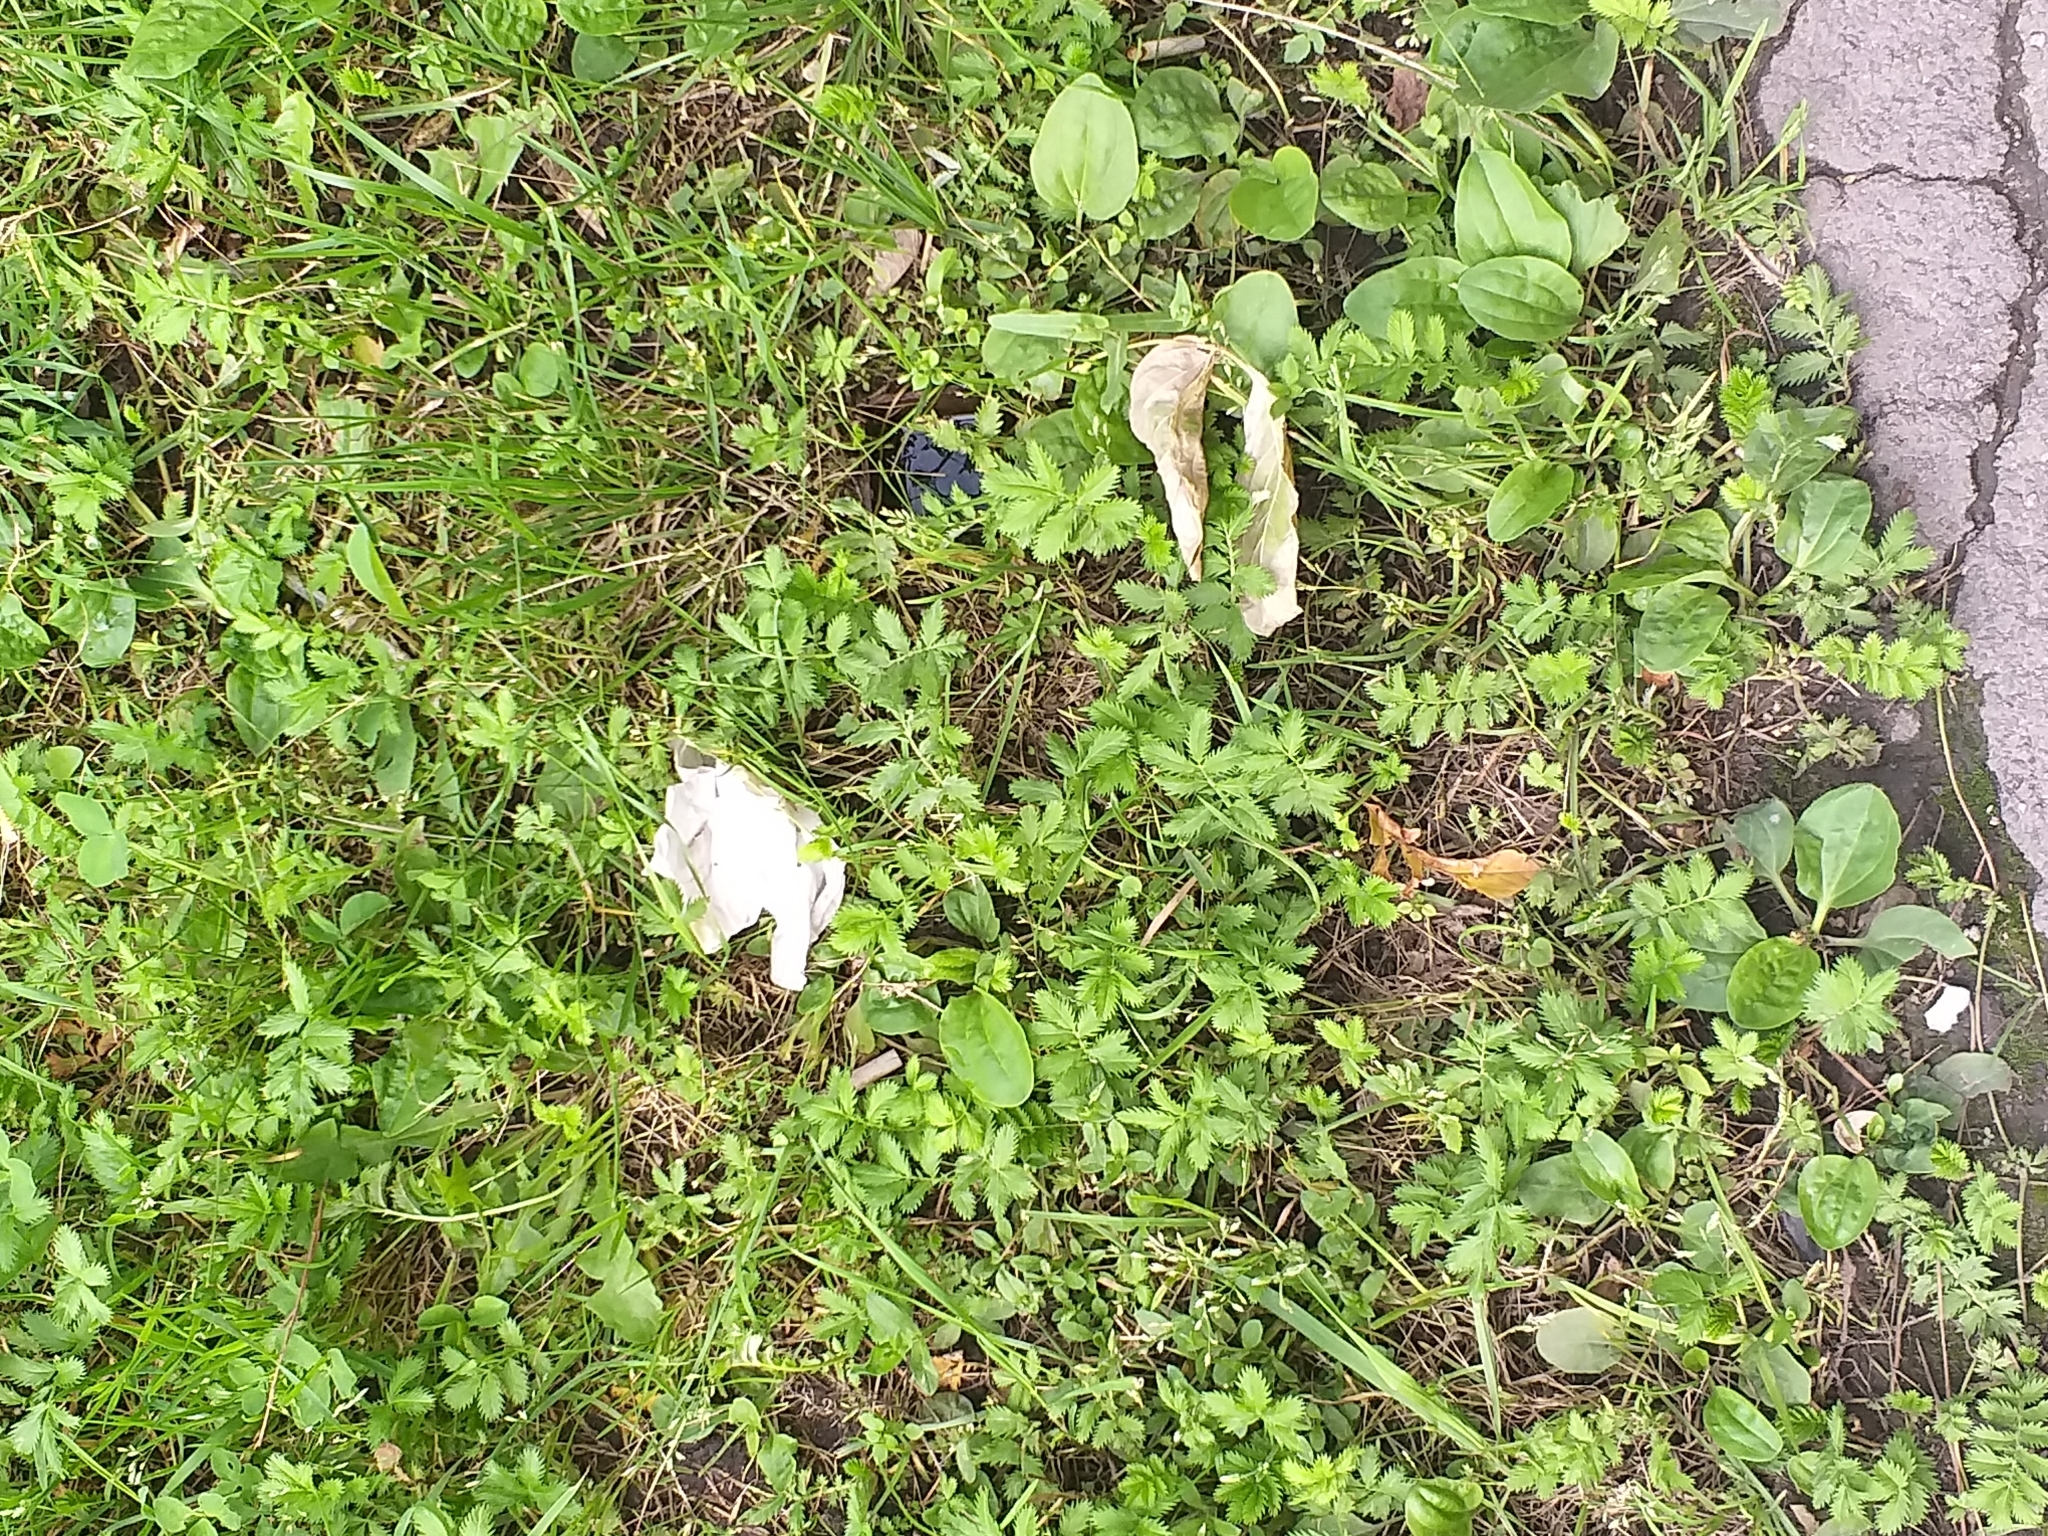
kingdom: Plantae
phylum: Tracheophyta
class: Magnoliopsida
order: Rosales
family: Rosaceae
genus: Argentina
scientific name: Argentina anserina
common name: Common silverweed
